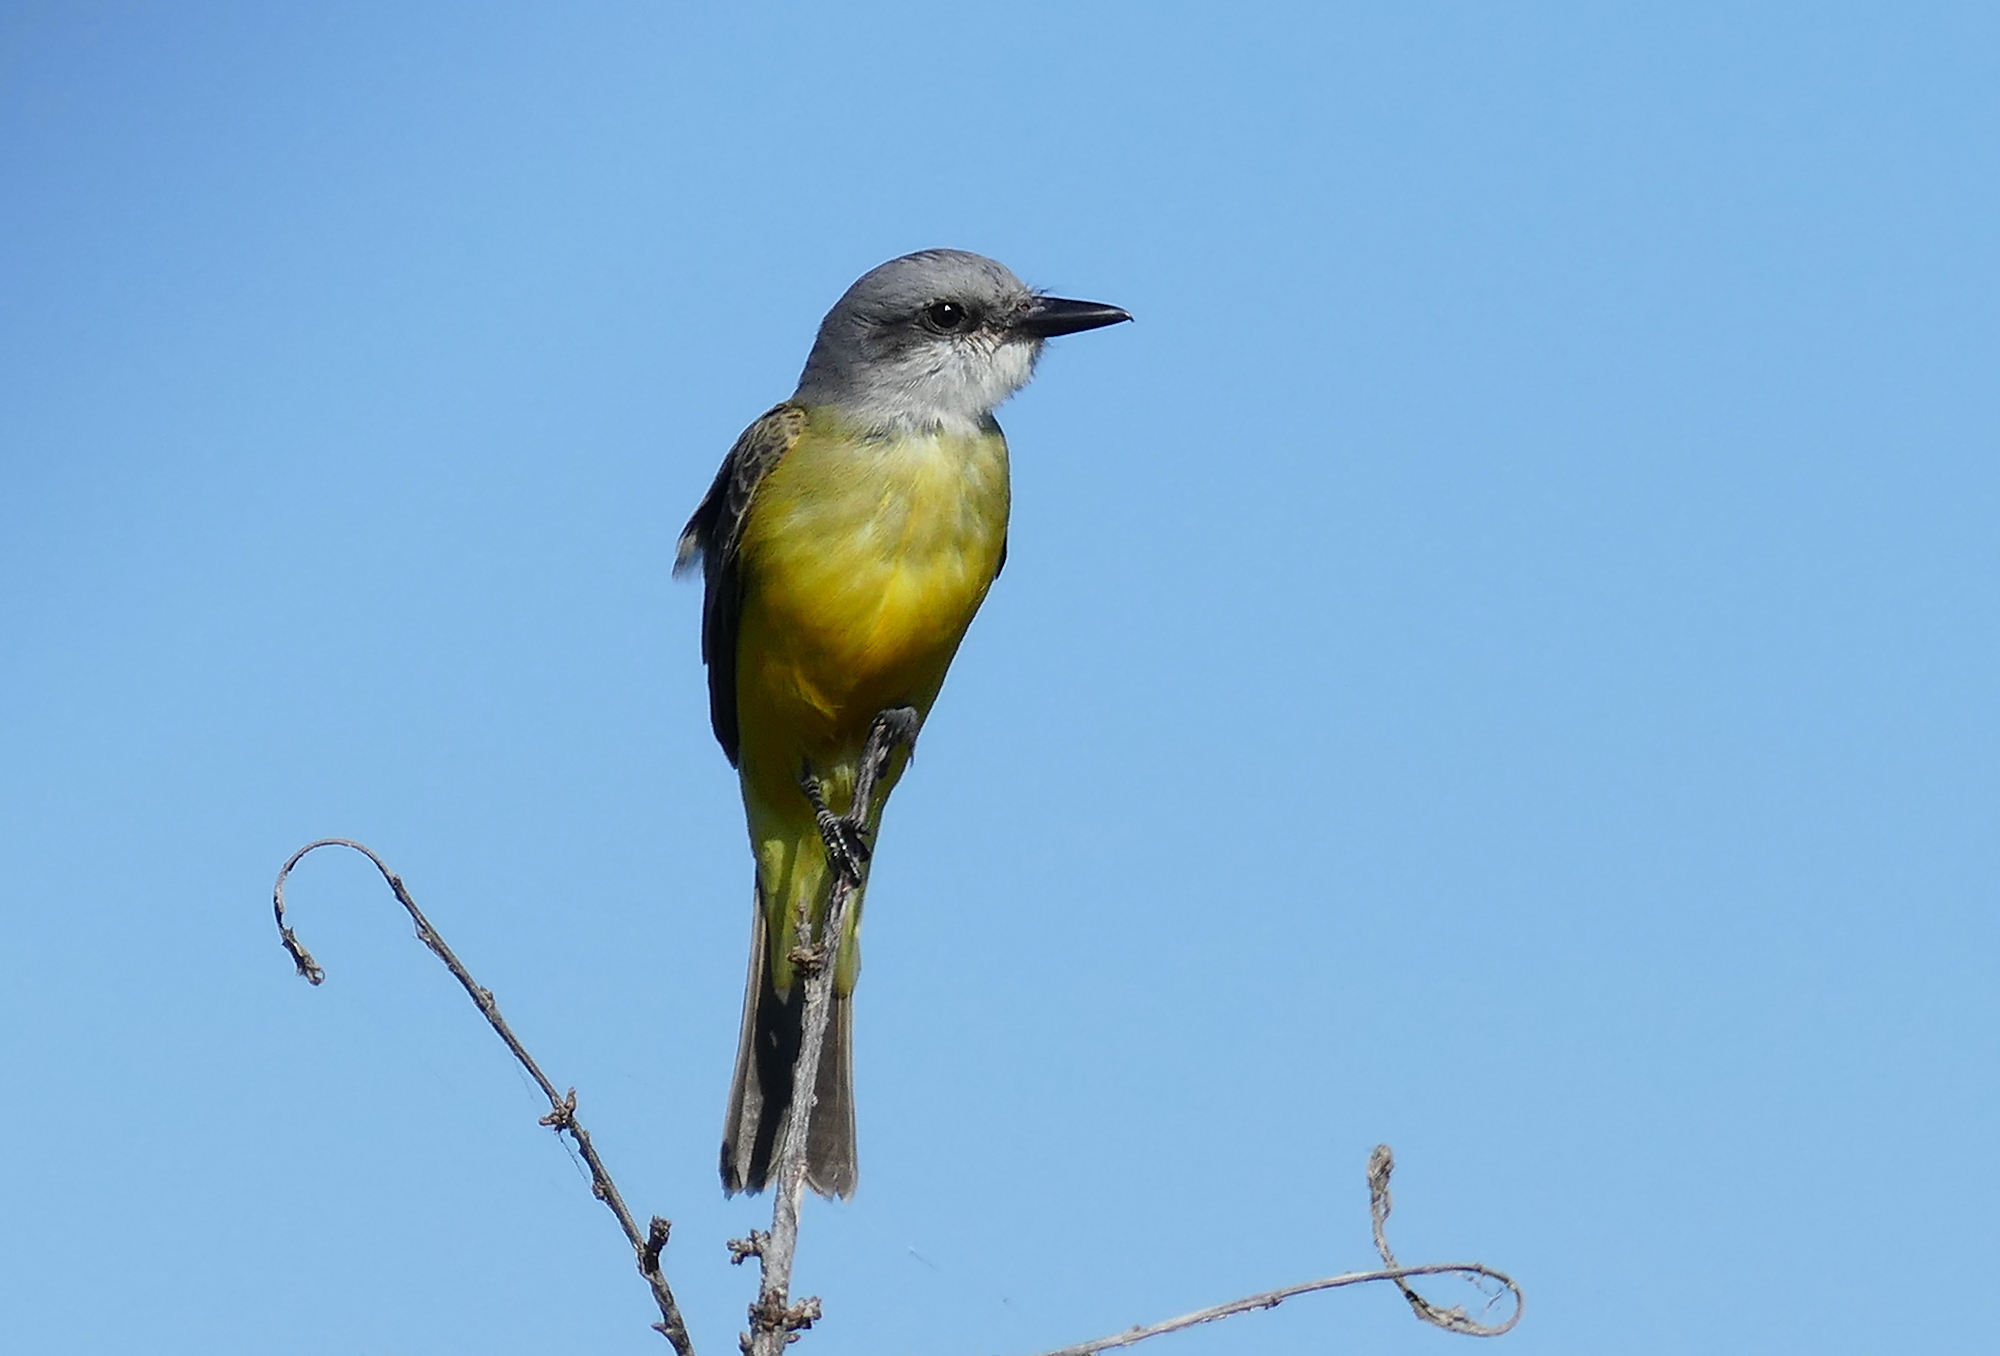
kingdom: Animalia
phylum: Chordata
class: Aves
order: Passeriformes
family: Tyrannidae
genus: Tyrannus
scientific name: Tyrannus melancholicus
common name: Tropical kingbird
